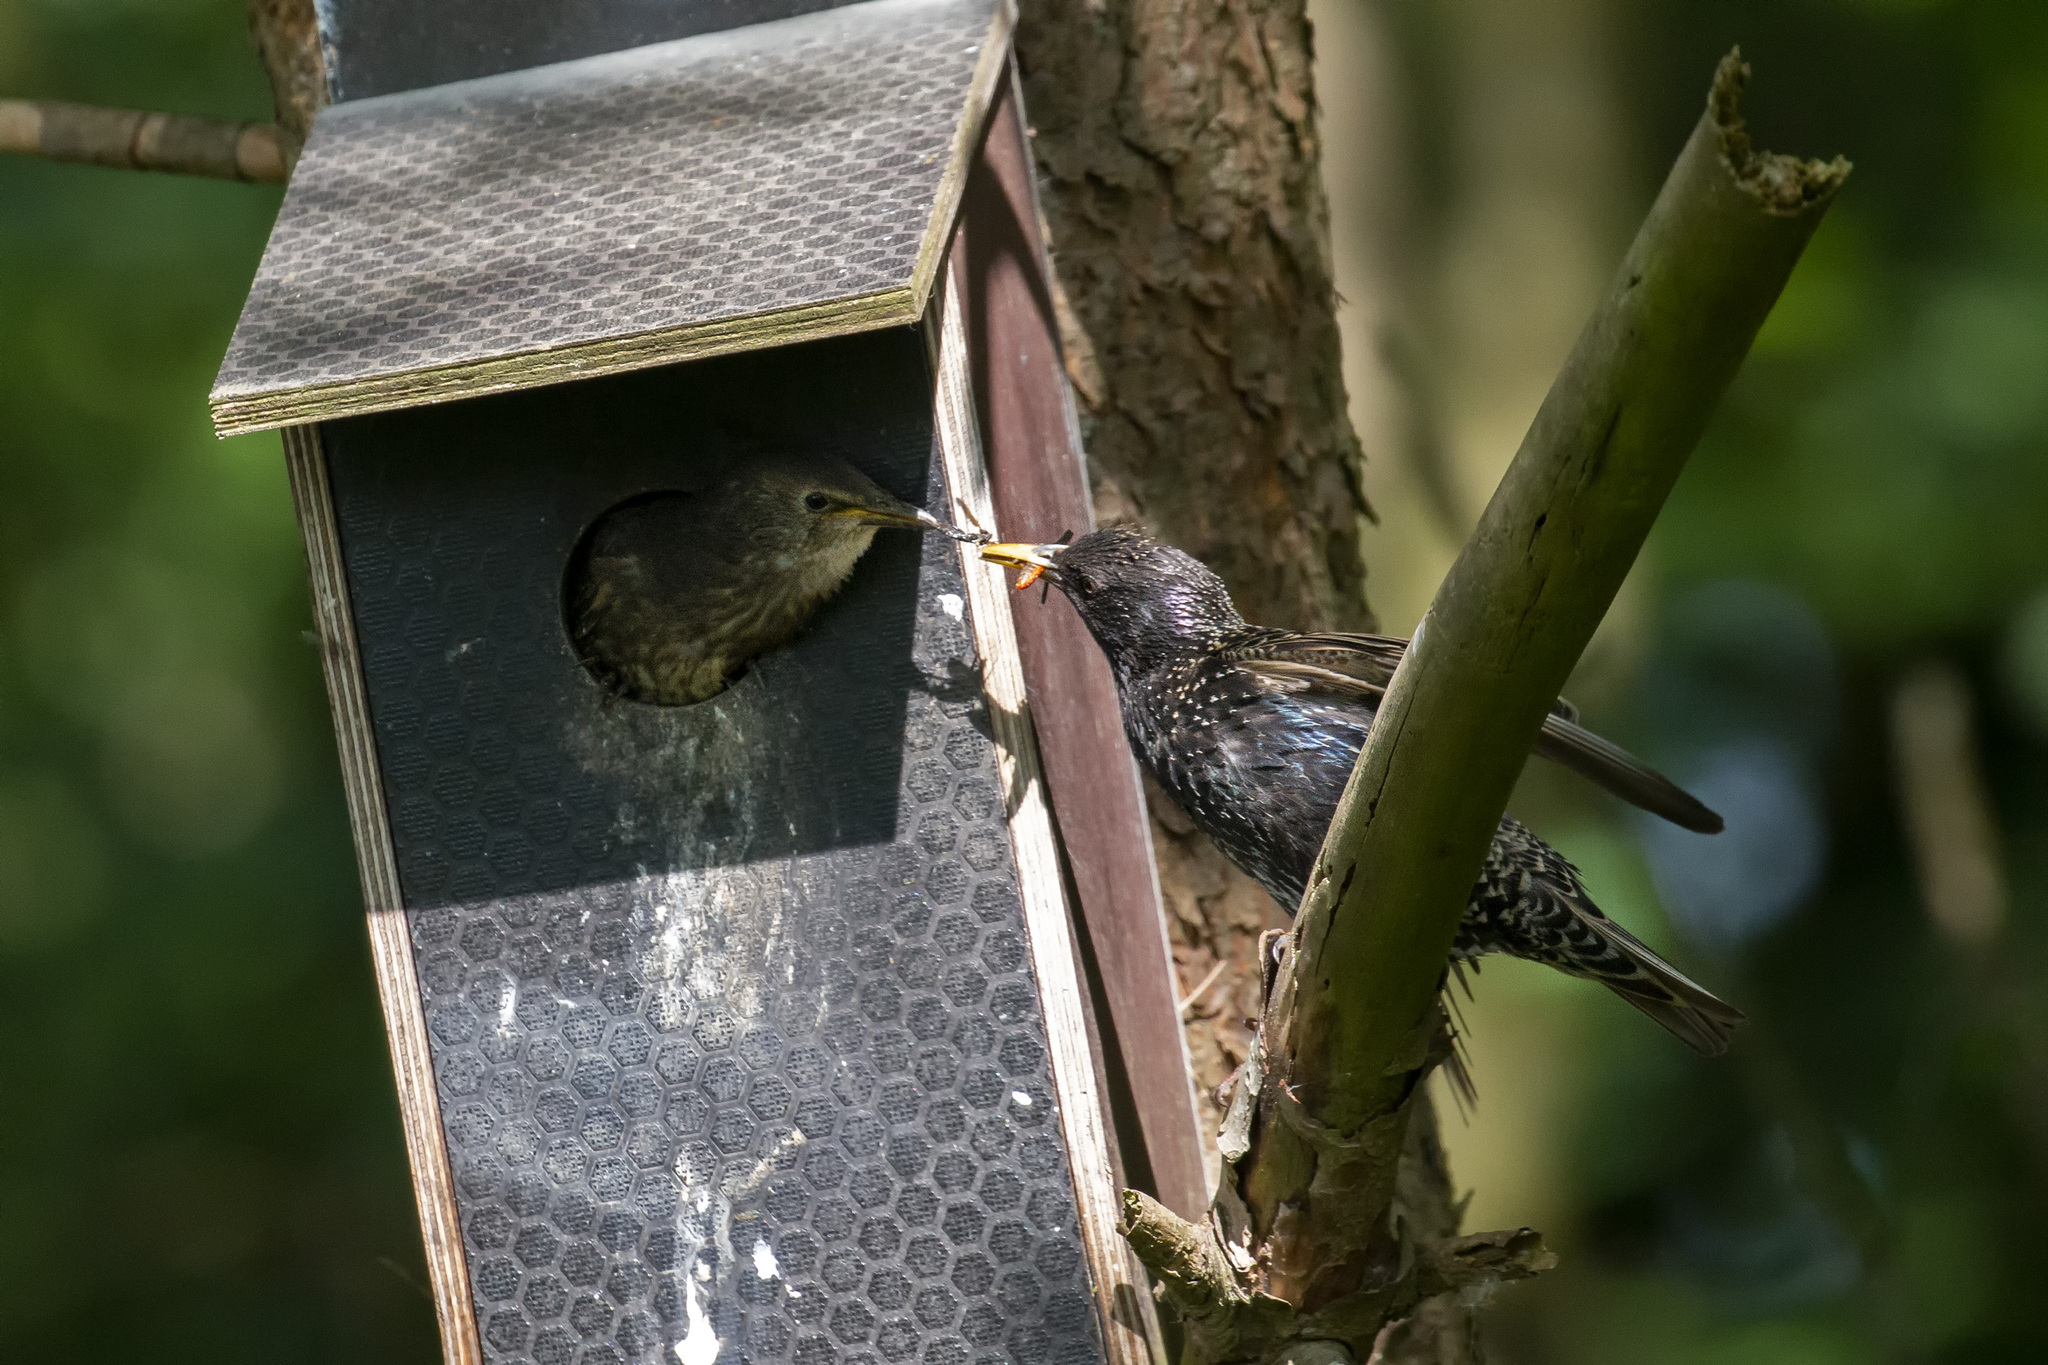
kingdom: Animalia
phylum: Chordata
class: Aves
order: Passeriformes
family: Sturnidae
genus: Sturnus
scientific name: Sturnus vulgaris
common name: Common starling
